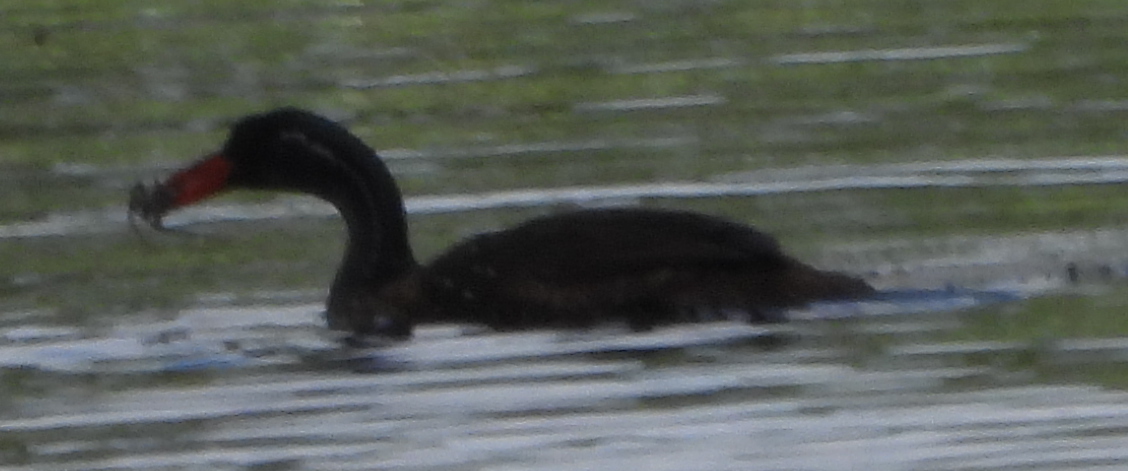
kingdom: Animalia
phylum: Chordata
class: Aves
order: Gruiformes
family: Heliornithidae
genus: Podica
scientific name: Podica senegalensis
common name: African finfoot
